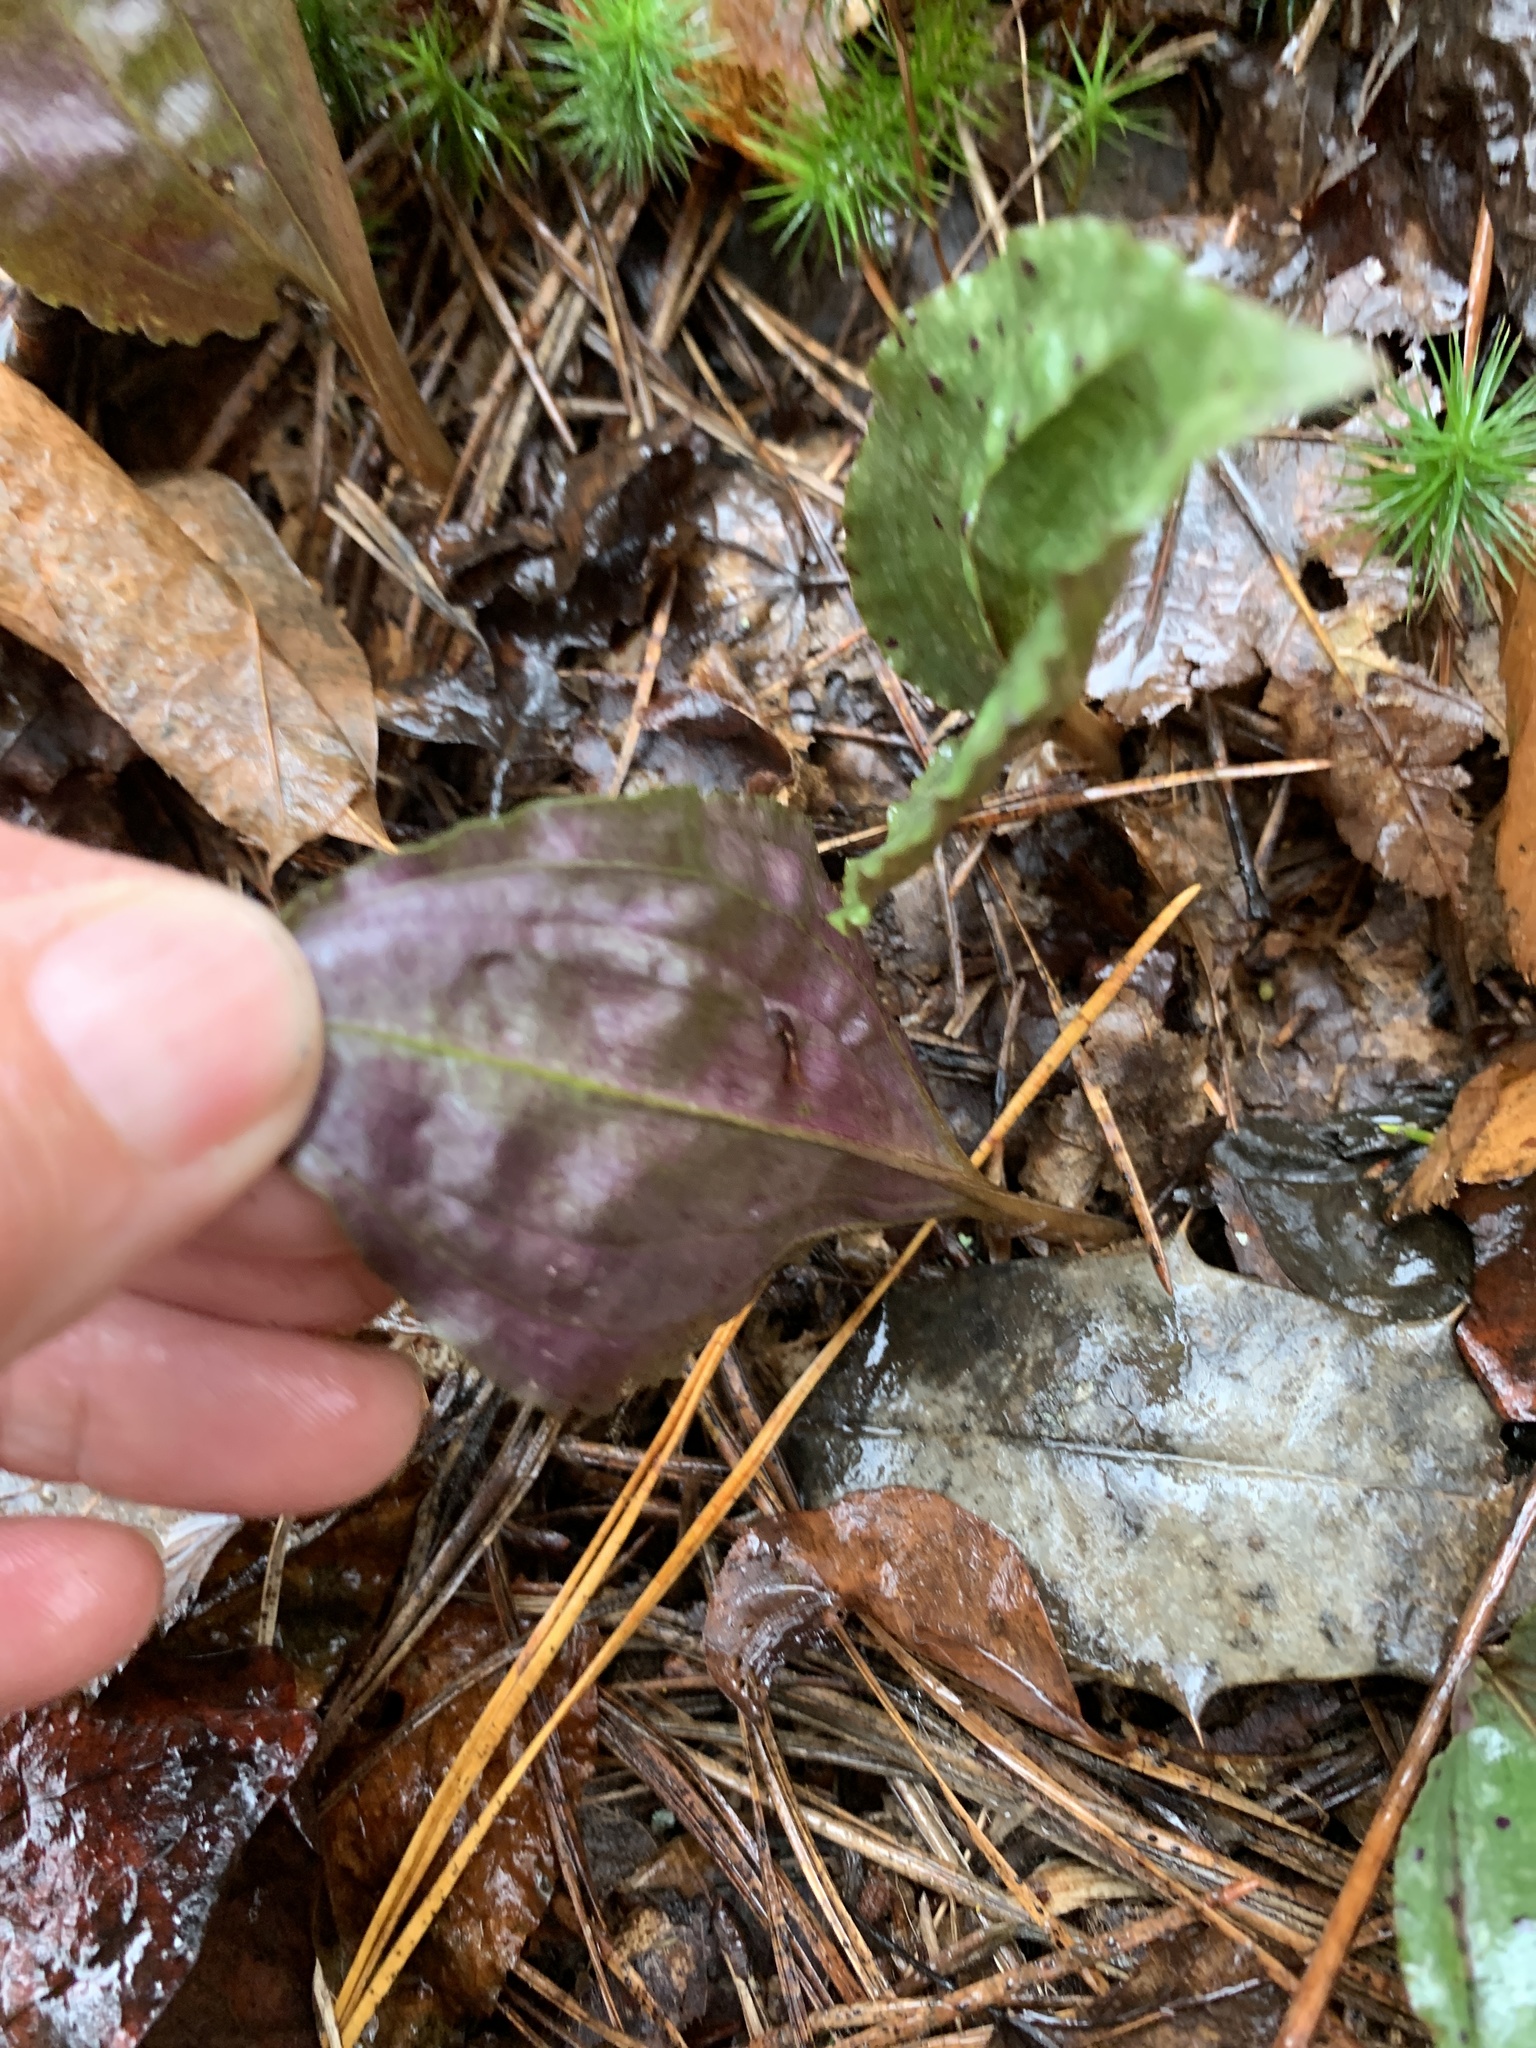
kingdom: Plantae
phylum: Tracheophyta
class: Liliopsida
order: Asparagales
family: Orchidaceae
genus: Tipularia
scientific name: Tipularia discolor
